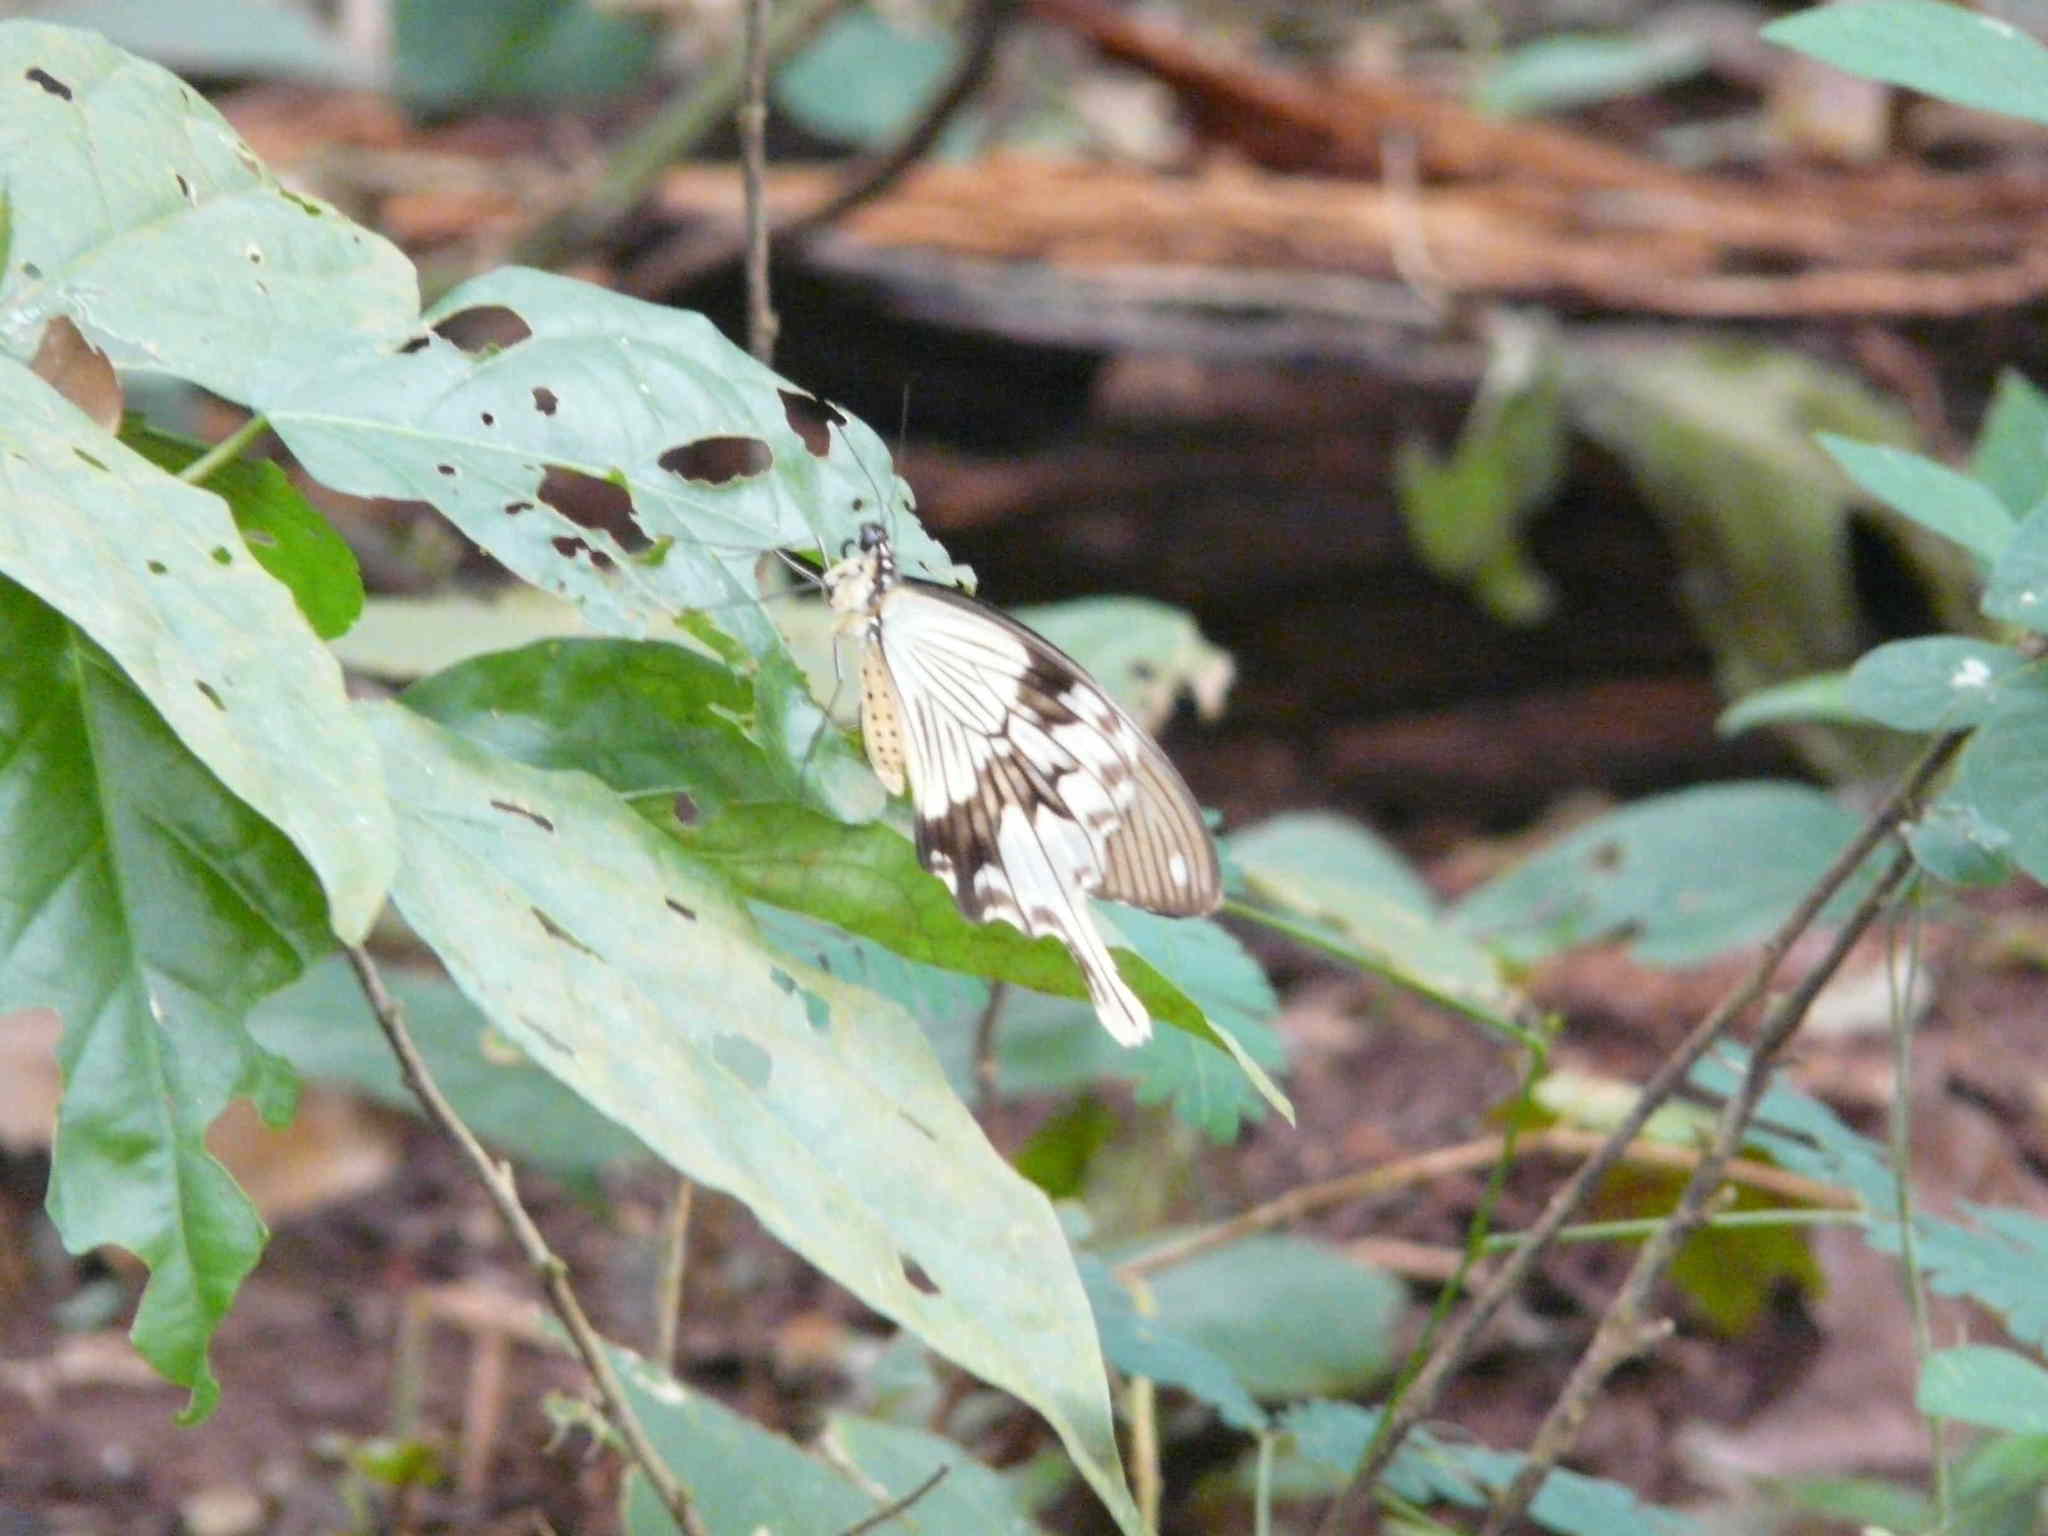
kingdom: Animalia
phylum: Arthropoda
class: Insecta
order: Lepidoptera
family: Papilionidae
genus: Papilio
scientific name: Papilio dardanus
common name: Flying handkerchief
